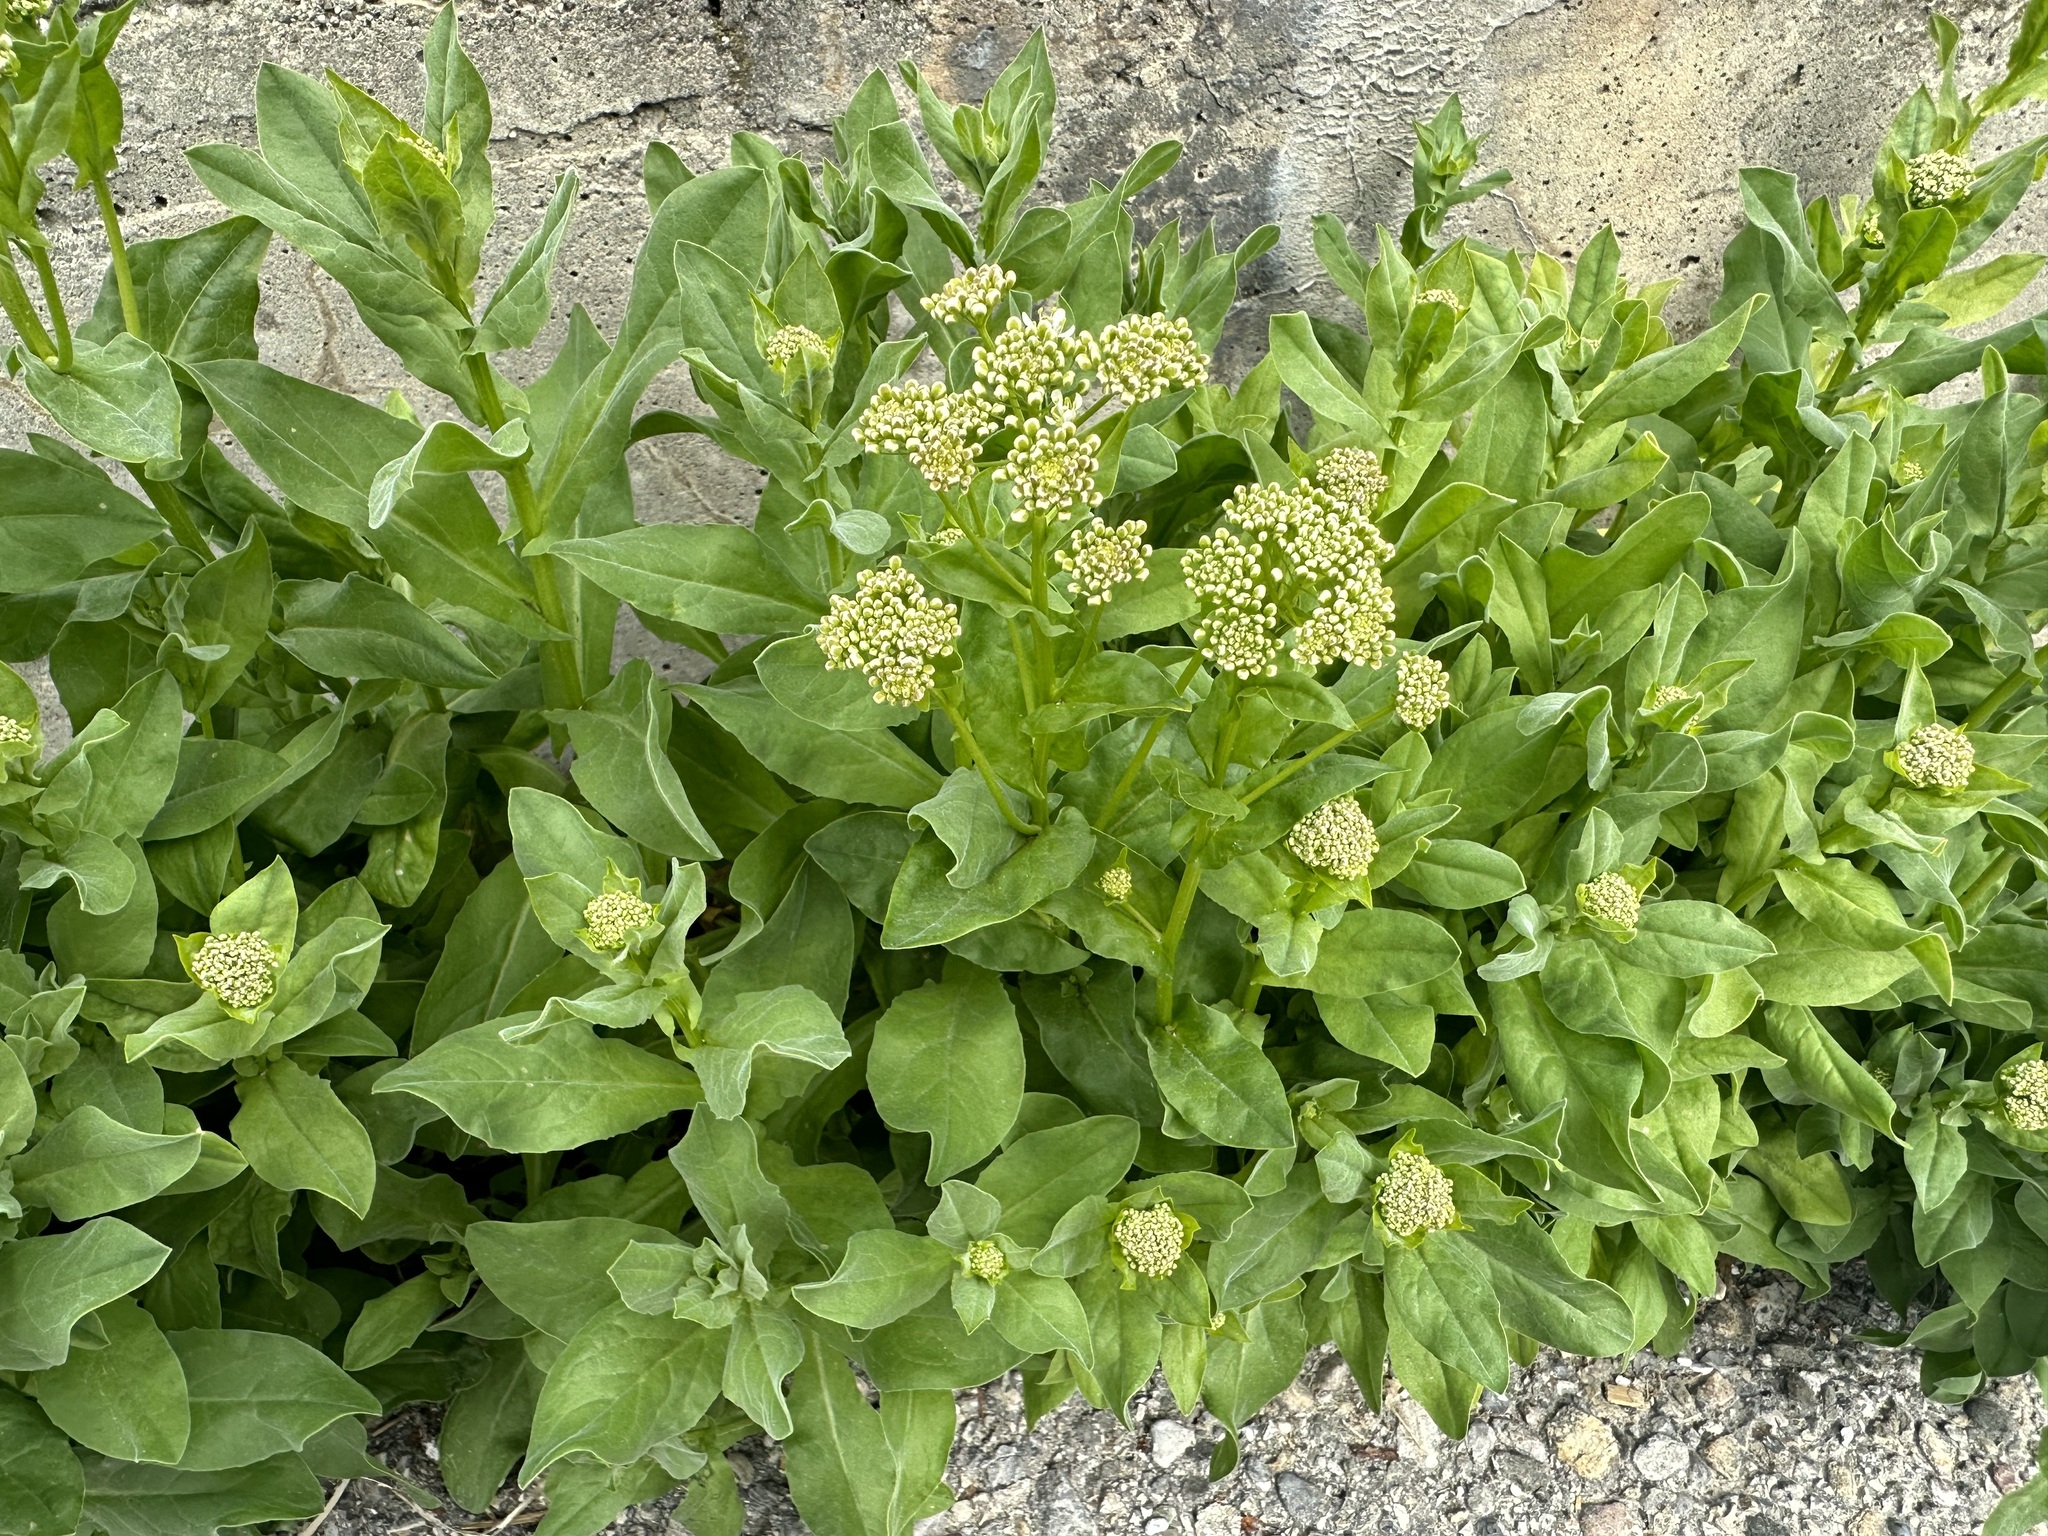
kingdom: Plantae
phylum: Tracheophyta
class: Magnoliopsida
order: Brassicales
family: Brassicaceae
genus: Lepidium
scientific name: Lepidium draba
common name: Hoary cress
